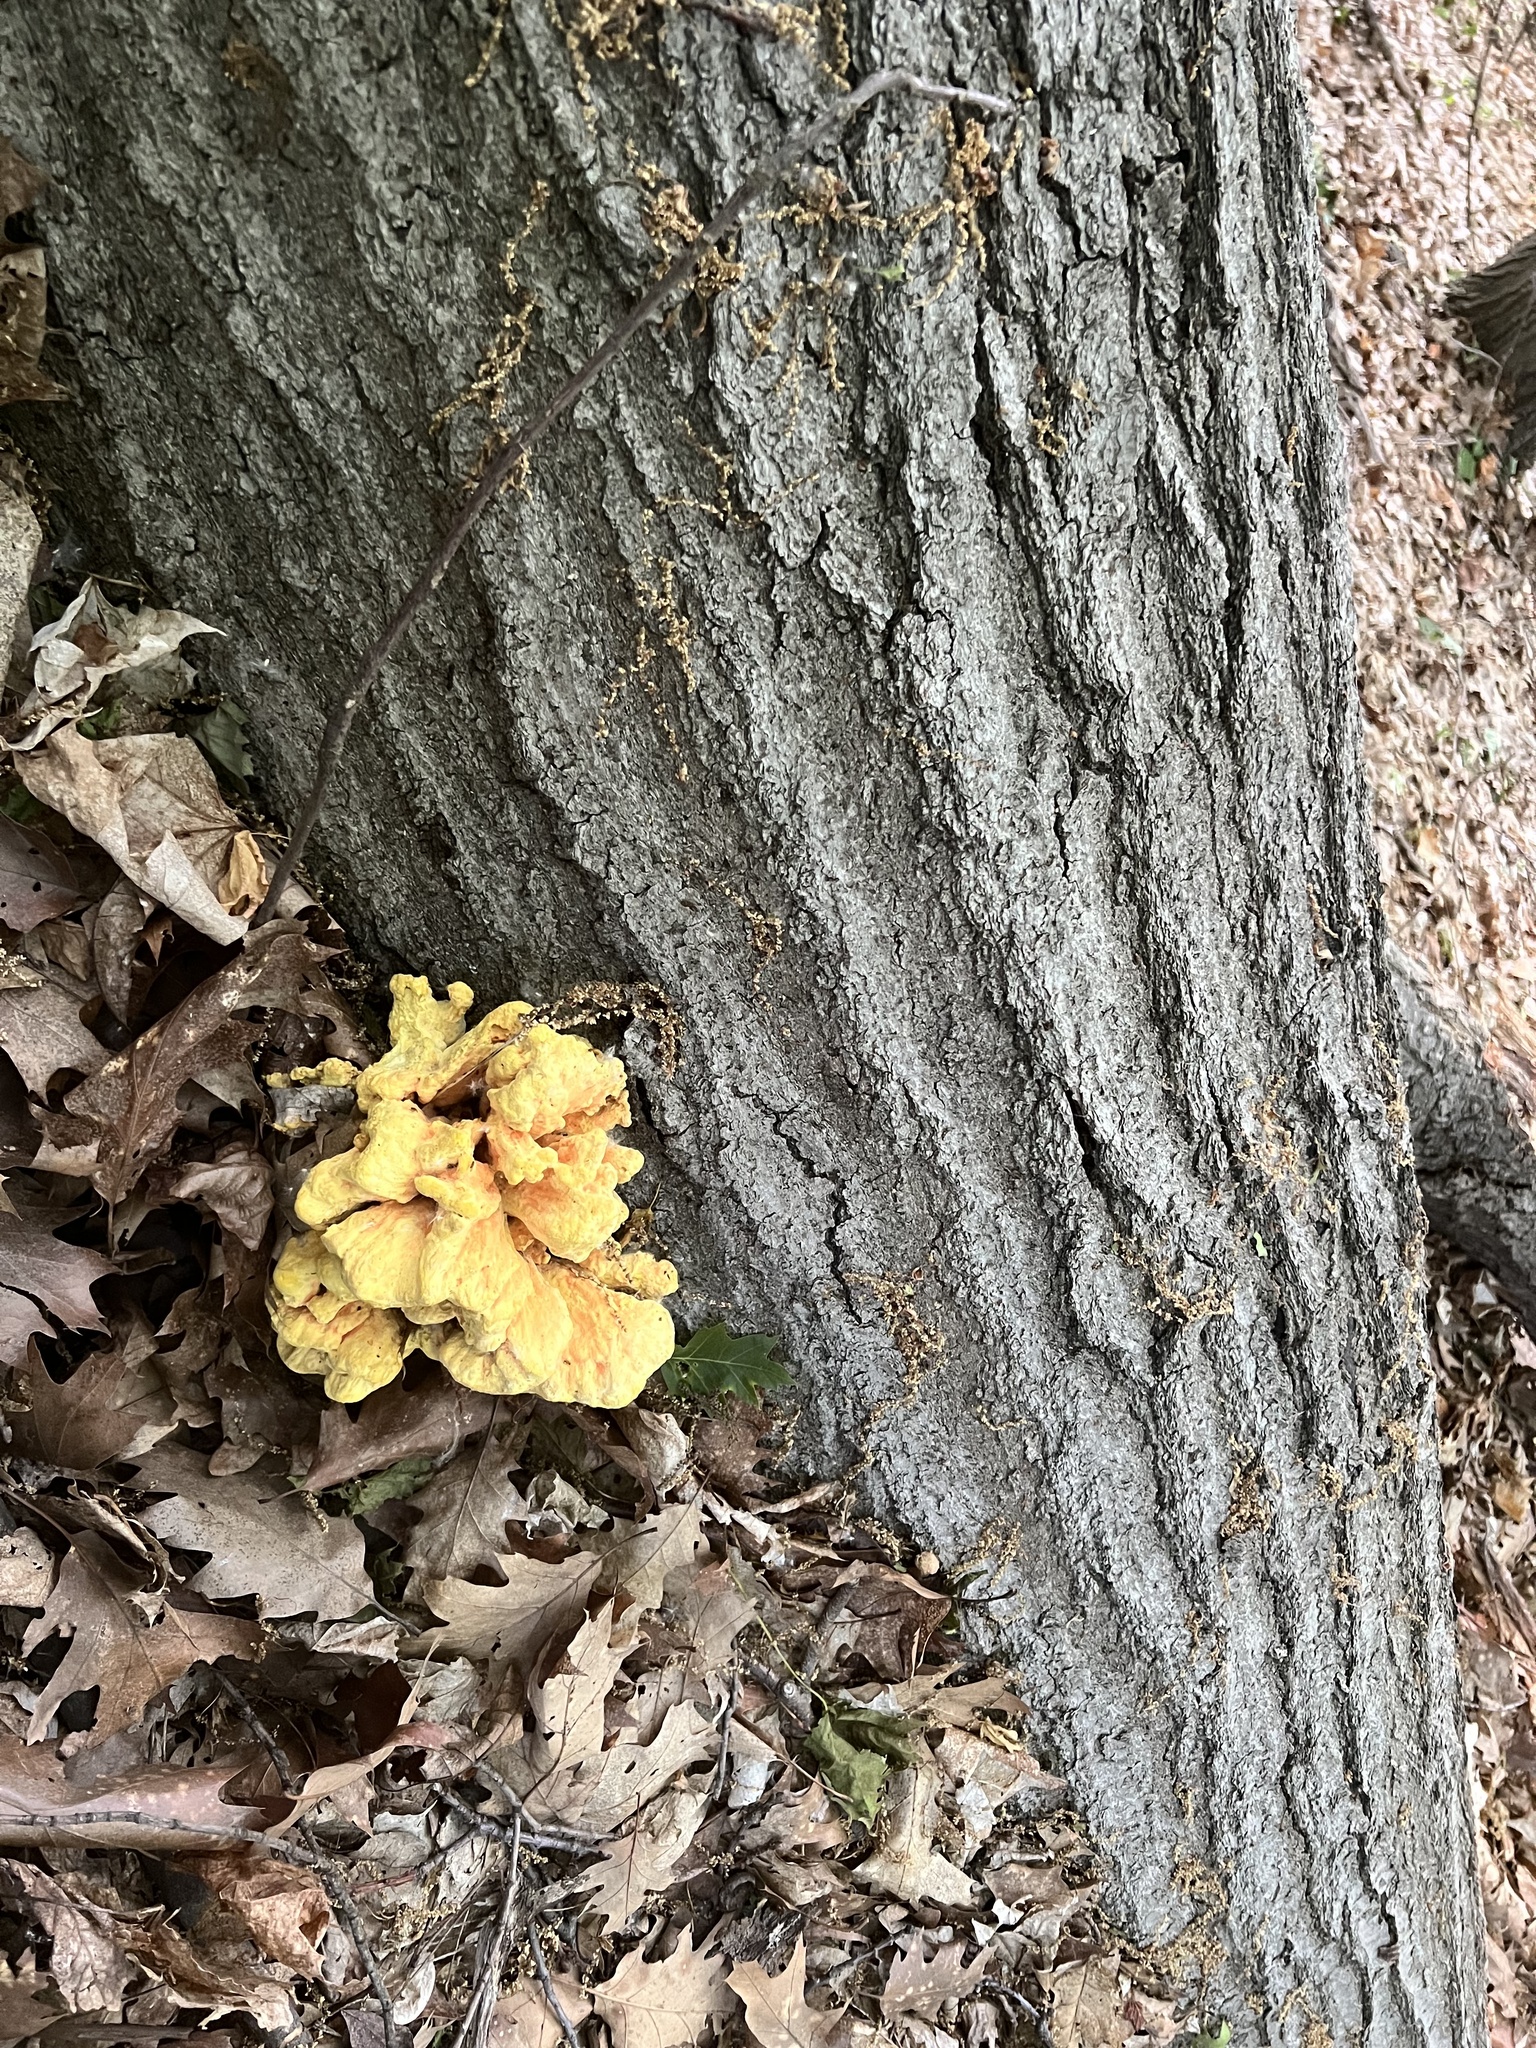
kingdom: Fungi
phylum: Basidiomycota
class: Agaricomycetes
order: Polyporales
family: Laetiporaceae
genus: Laetiporus
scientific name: Laetiporus sulphureus
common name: Chicken of the woods
